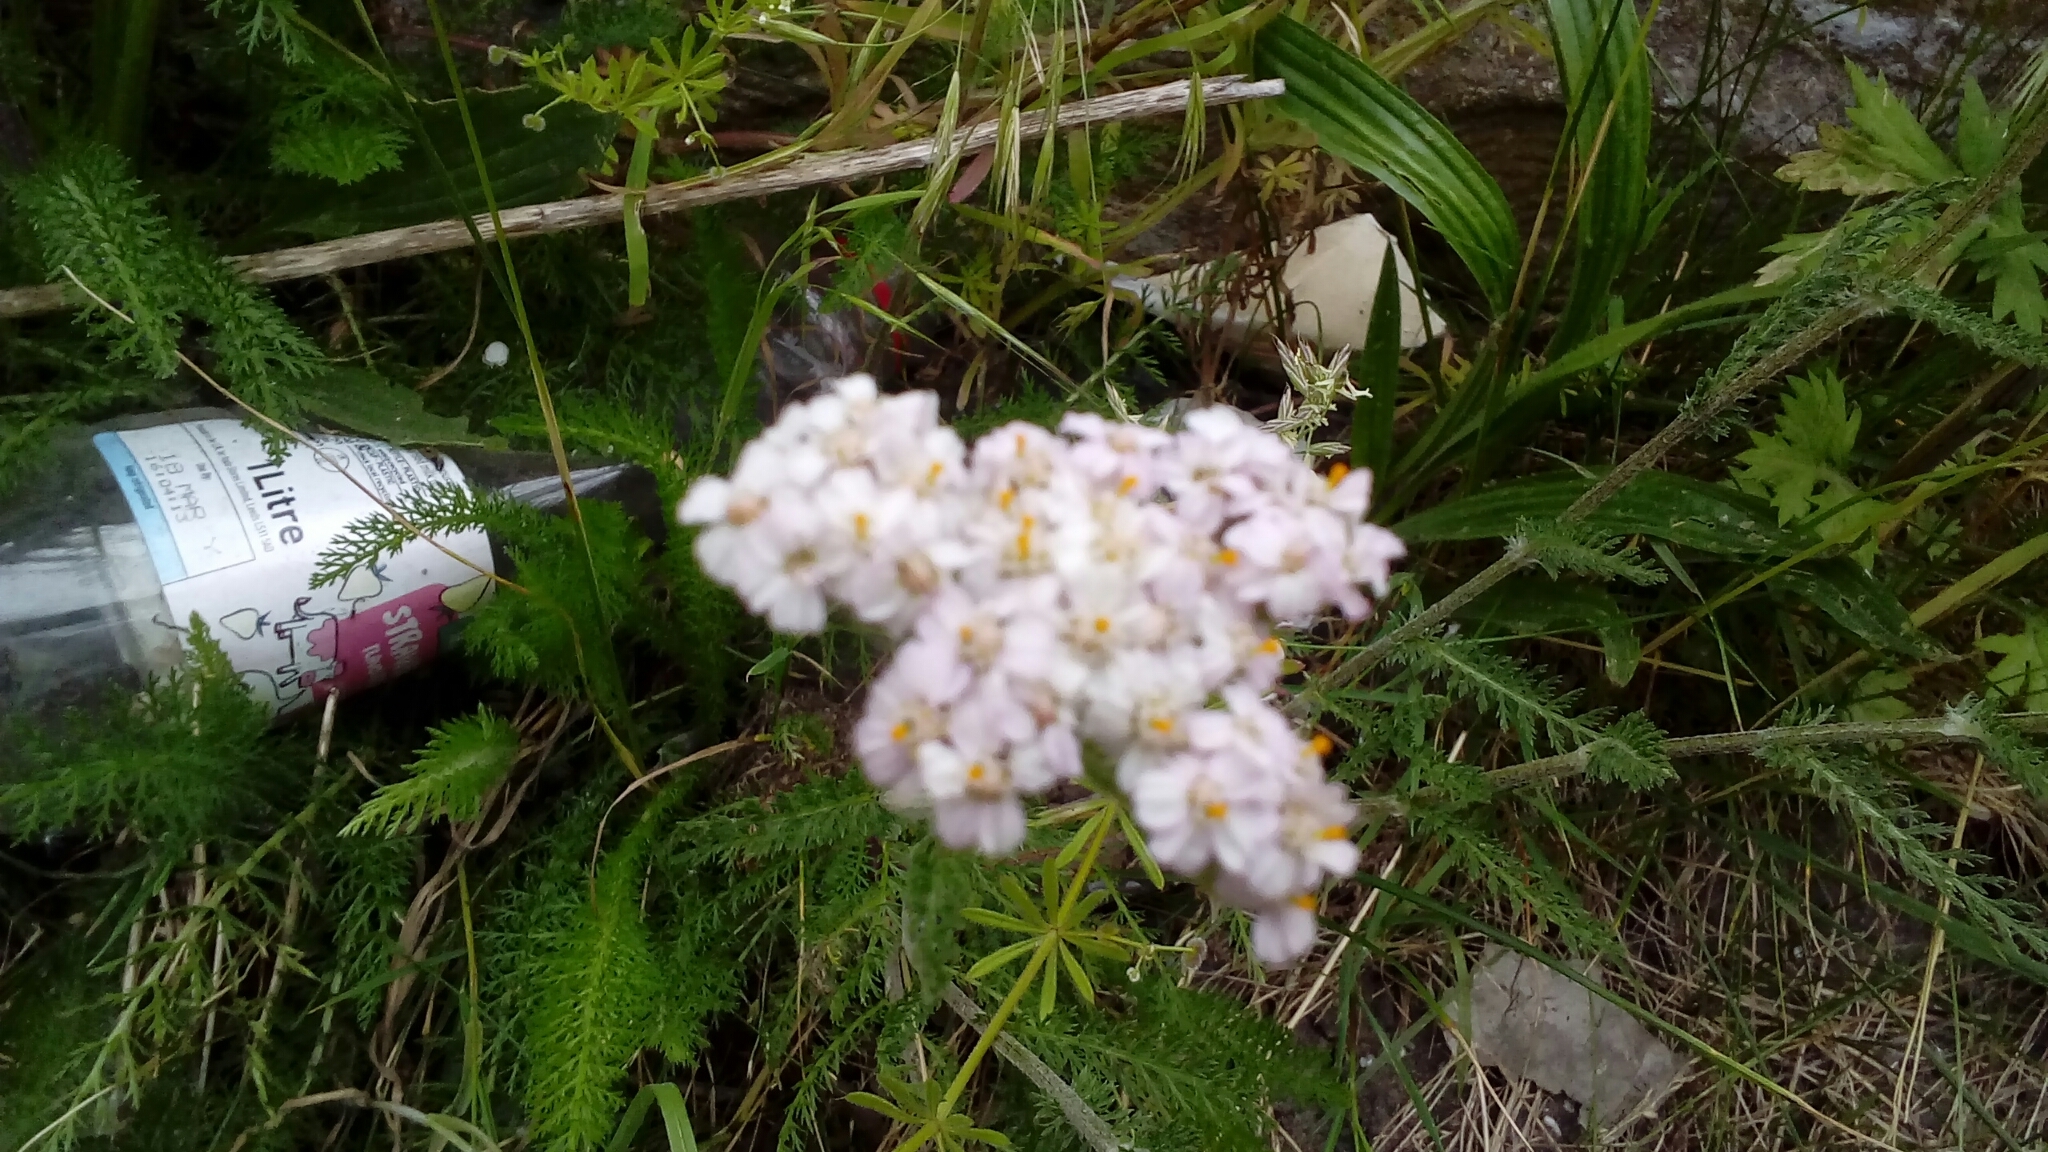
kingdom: Plantae
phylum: Tracheophyta
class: Magnoliopsida
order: Asterales
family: Asteraceae
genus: Achillea
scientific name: Achillea millefolium
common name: Yarrow
